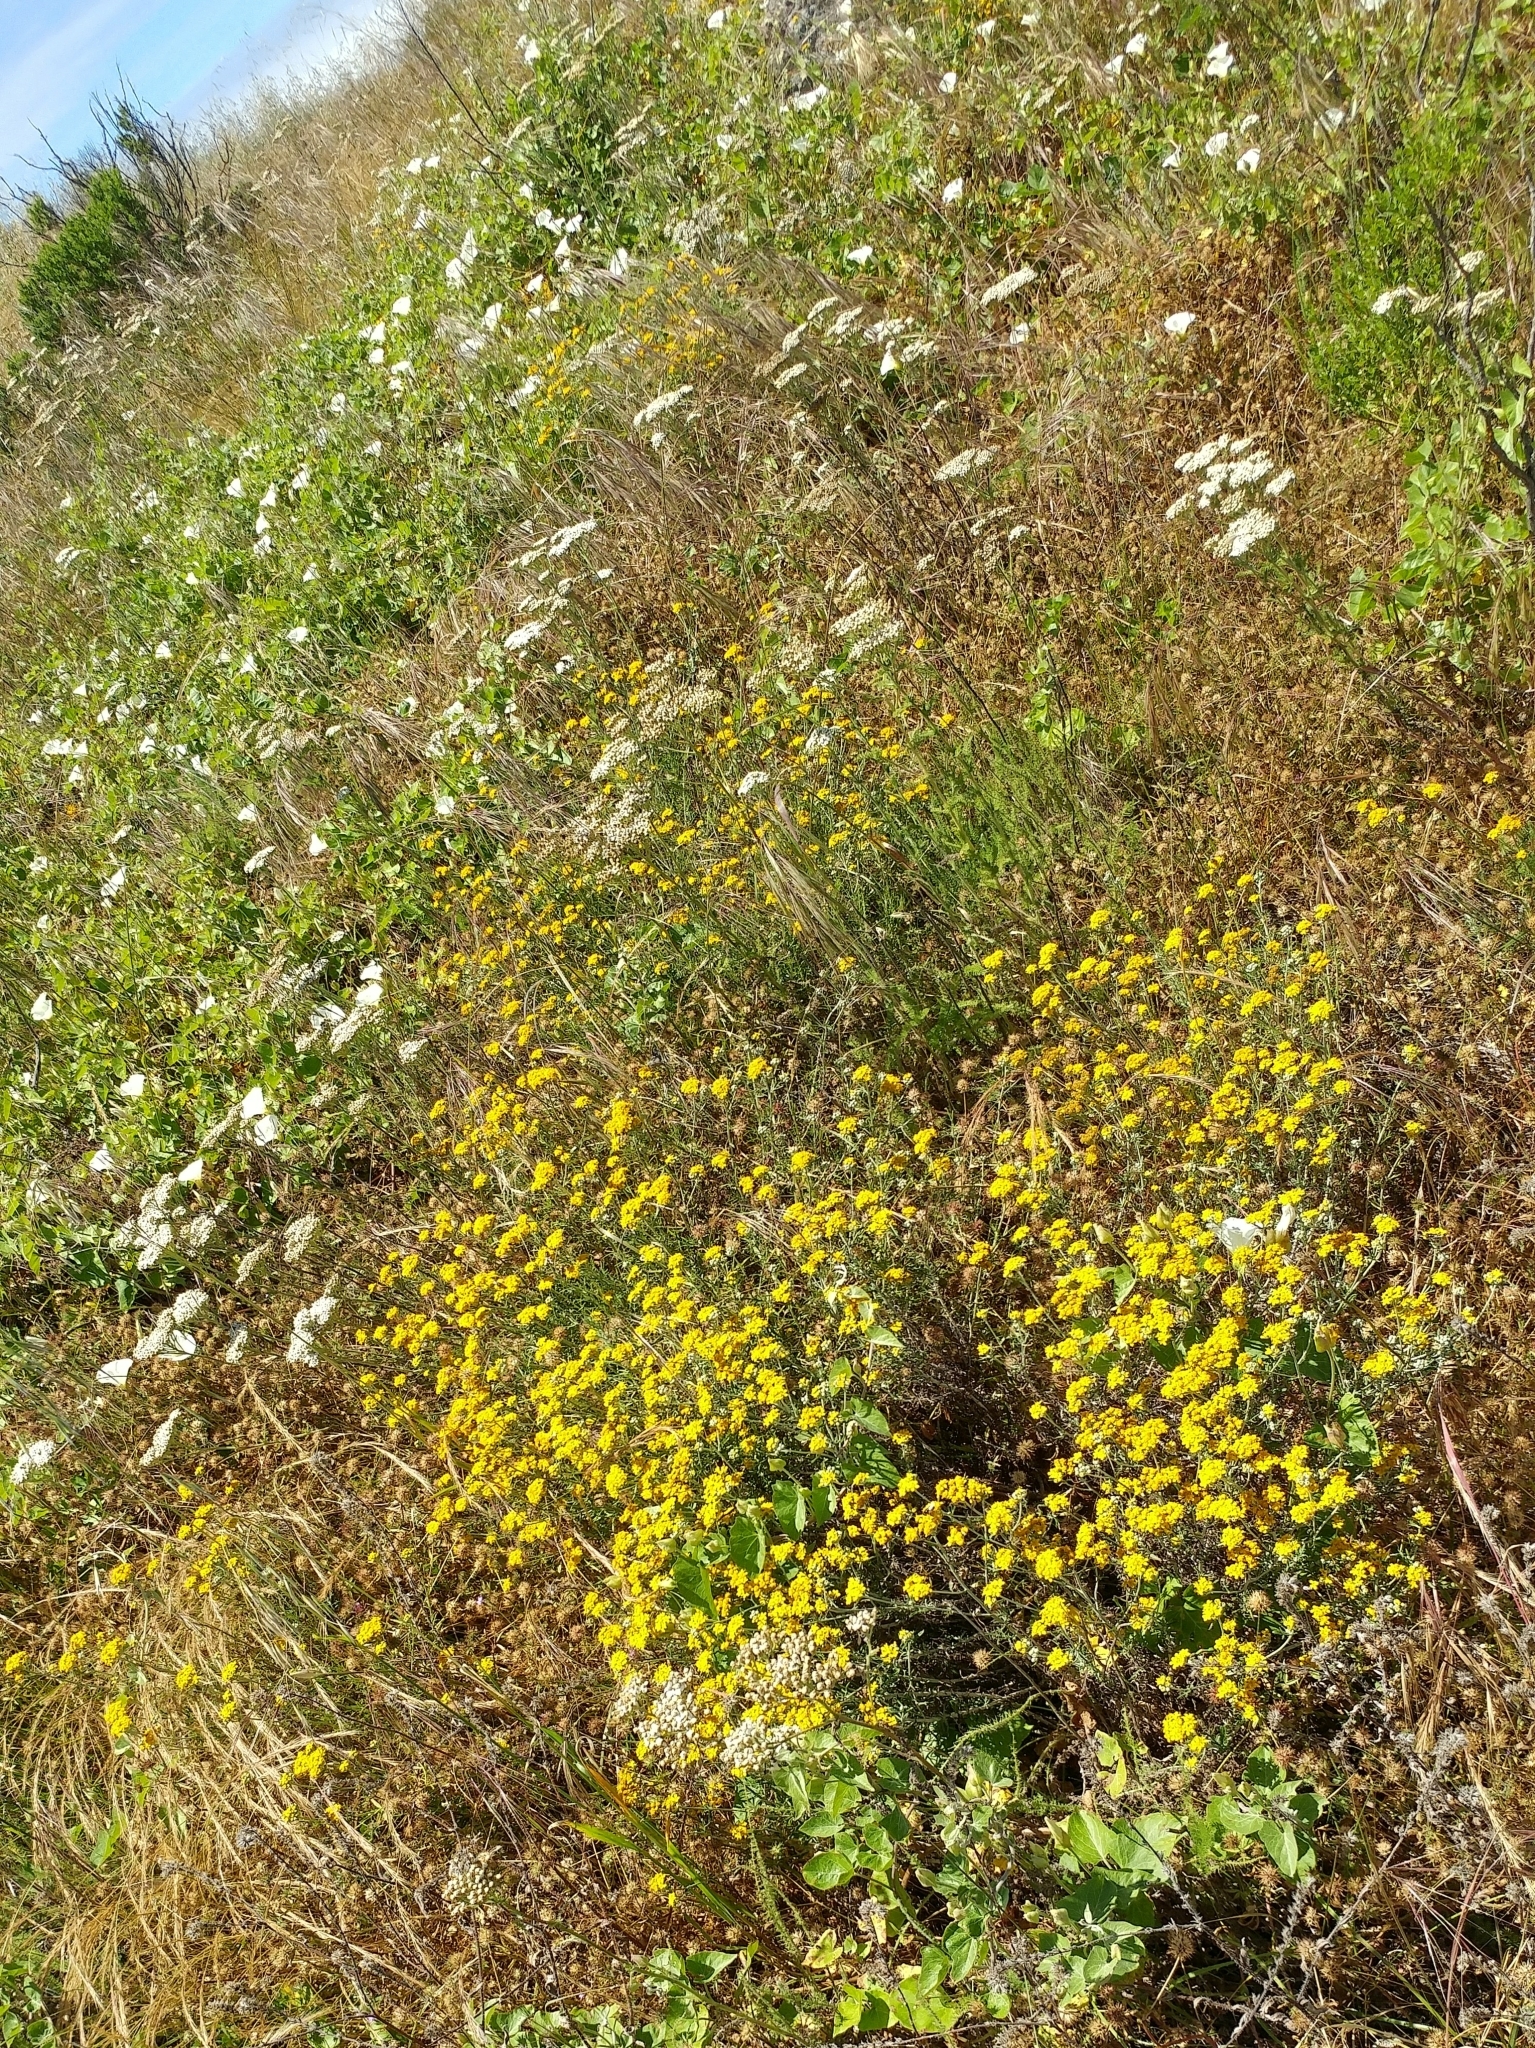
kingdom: Plantae
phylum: Tracheophyta
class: Magnoliopsida
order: Asterales
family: Asteraceae
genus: Eriophyllum
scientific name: Eriophyllum confertiflorum
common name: Golden-yarrow
